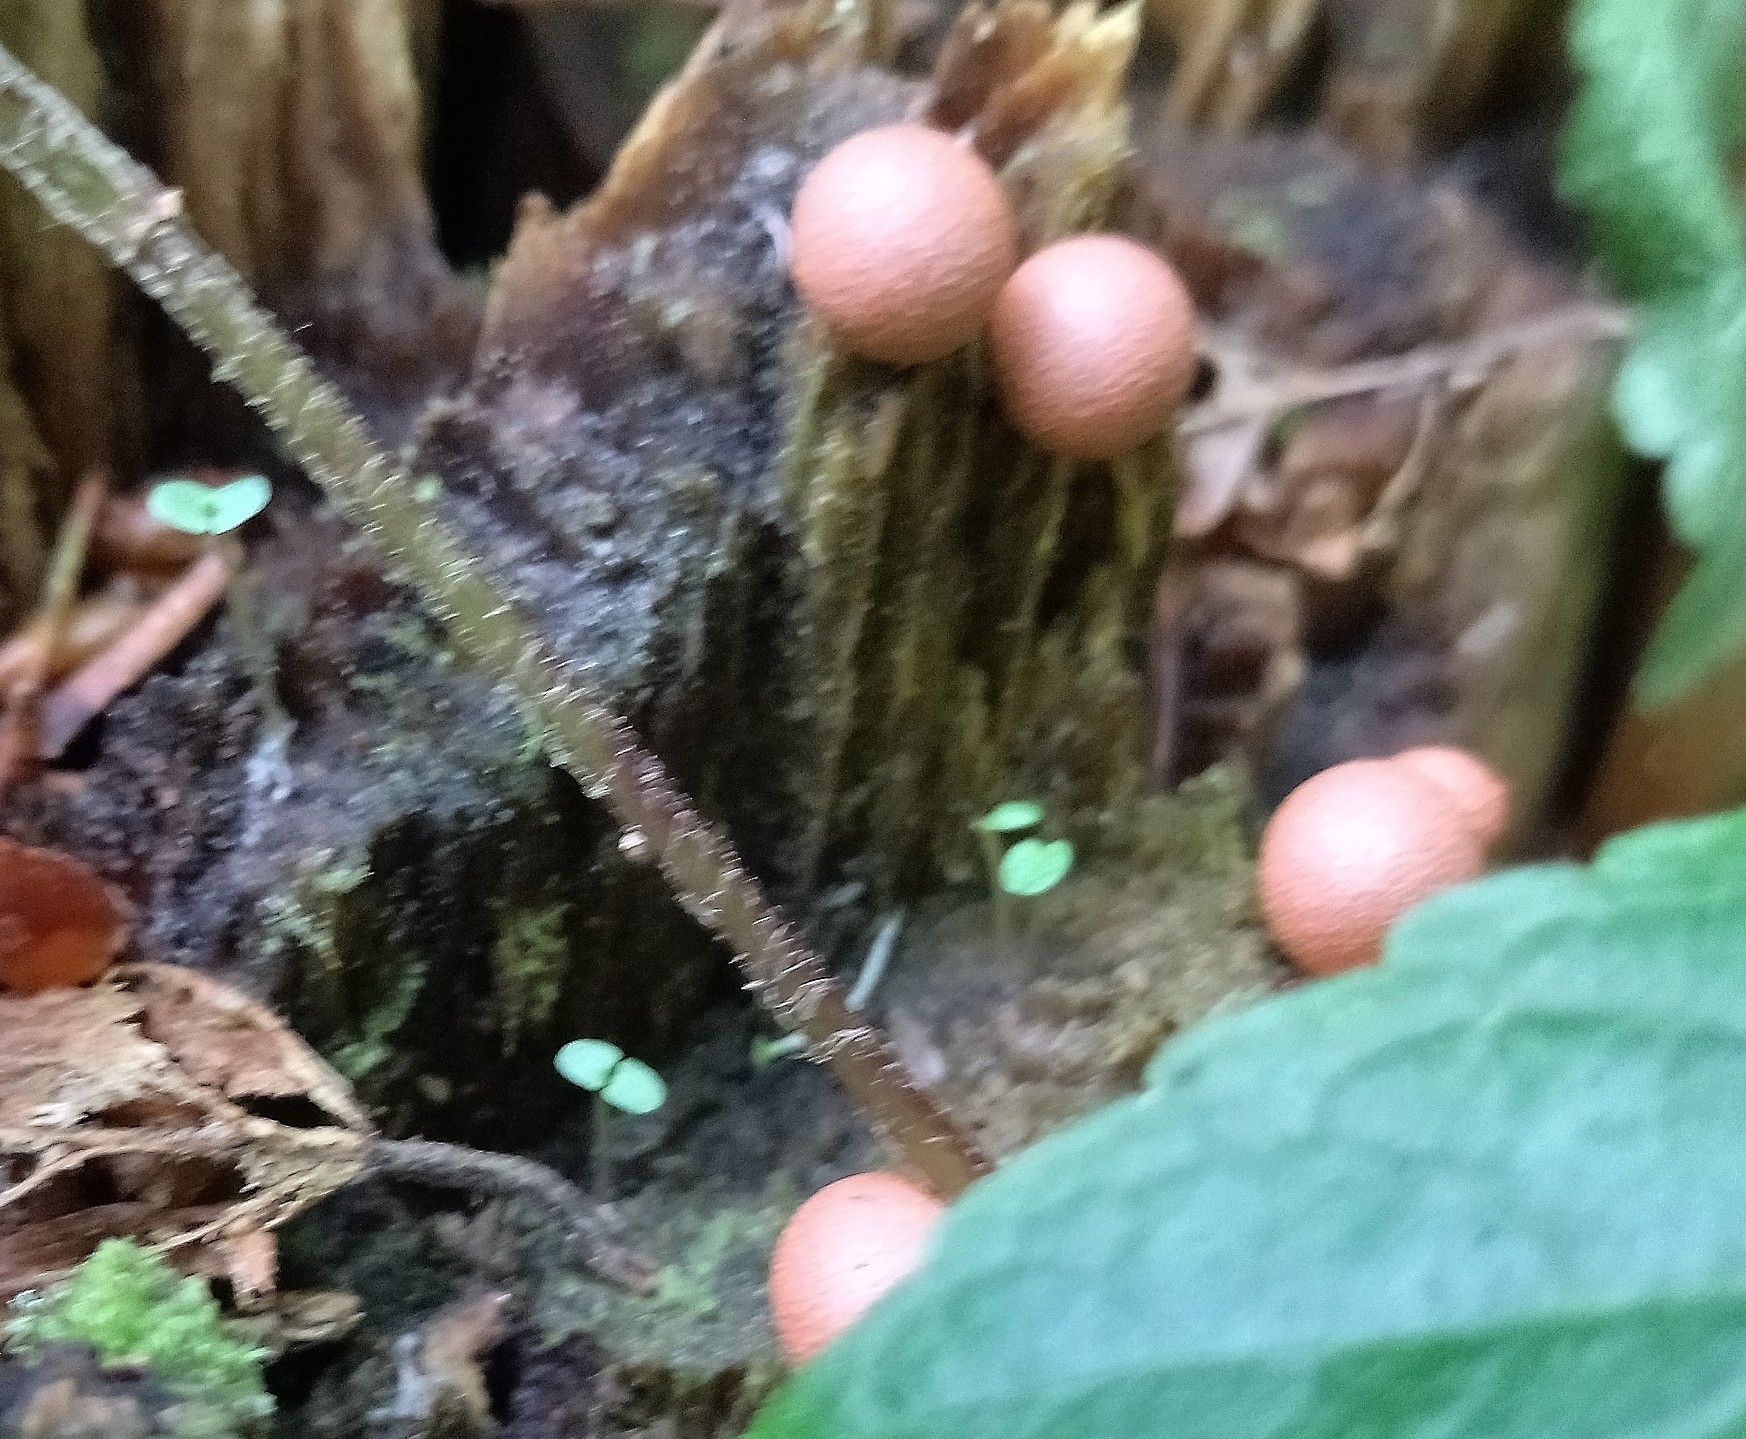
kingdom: Protozoa
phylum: Mycetozoa
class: Myxomycetes
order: Cribrariales
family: Tubiferaceae
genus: Lycogala
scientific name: Lycogala epidendrum
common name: Wolf's milk
